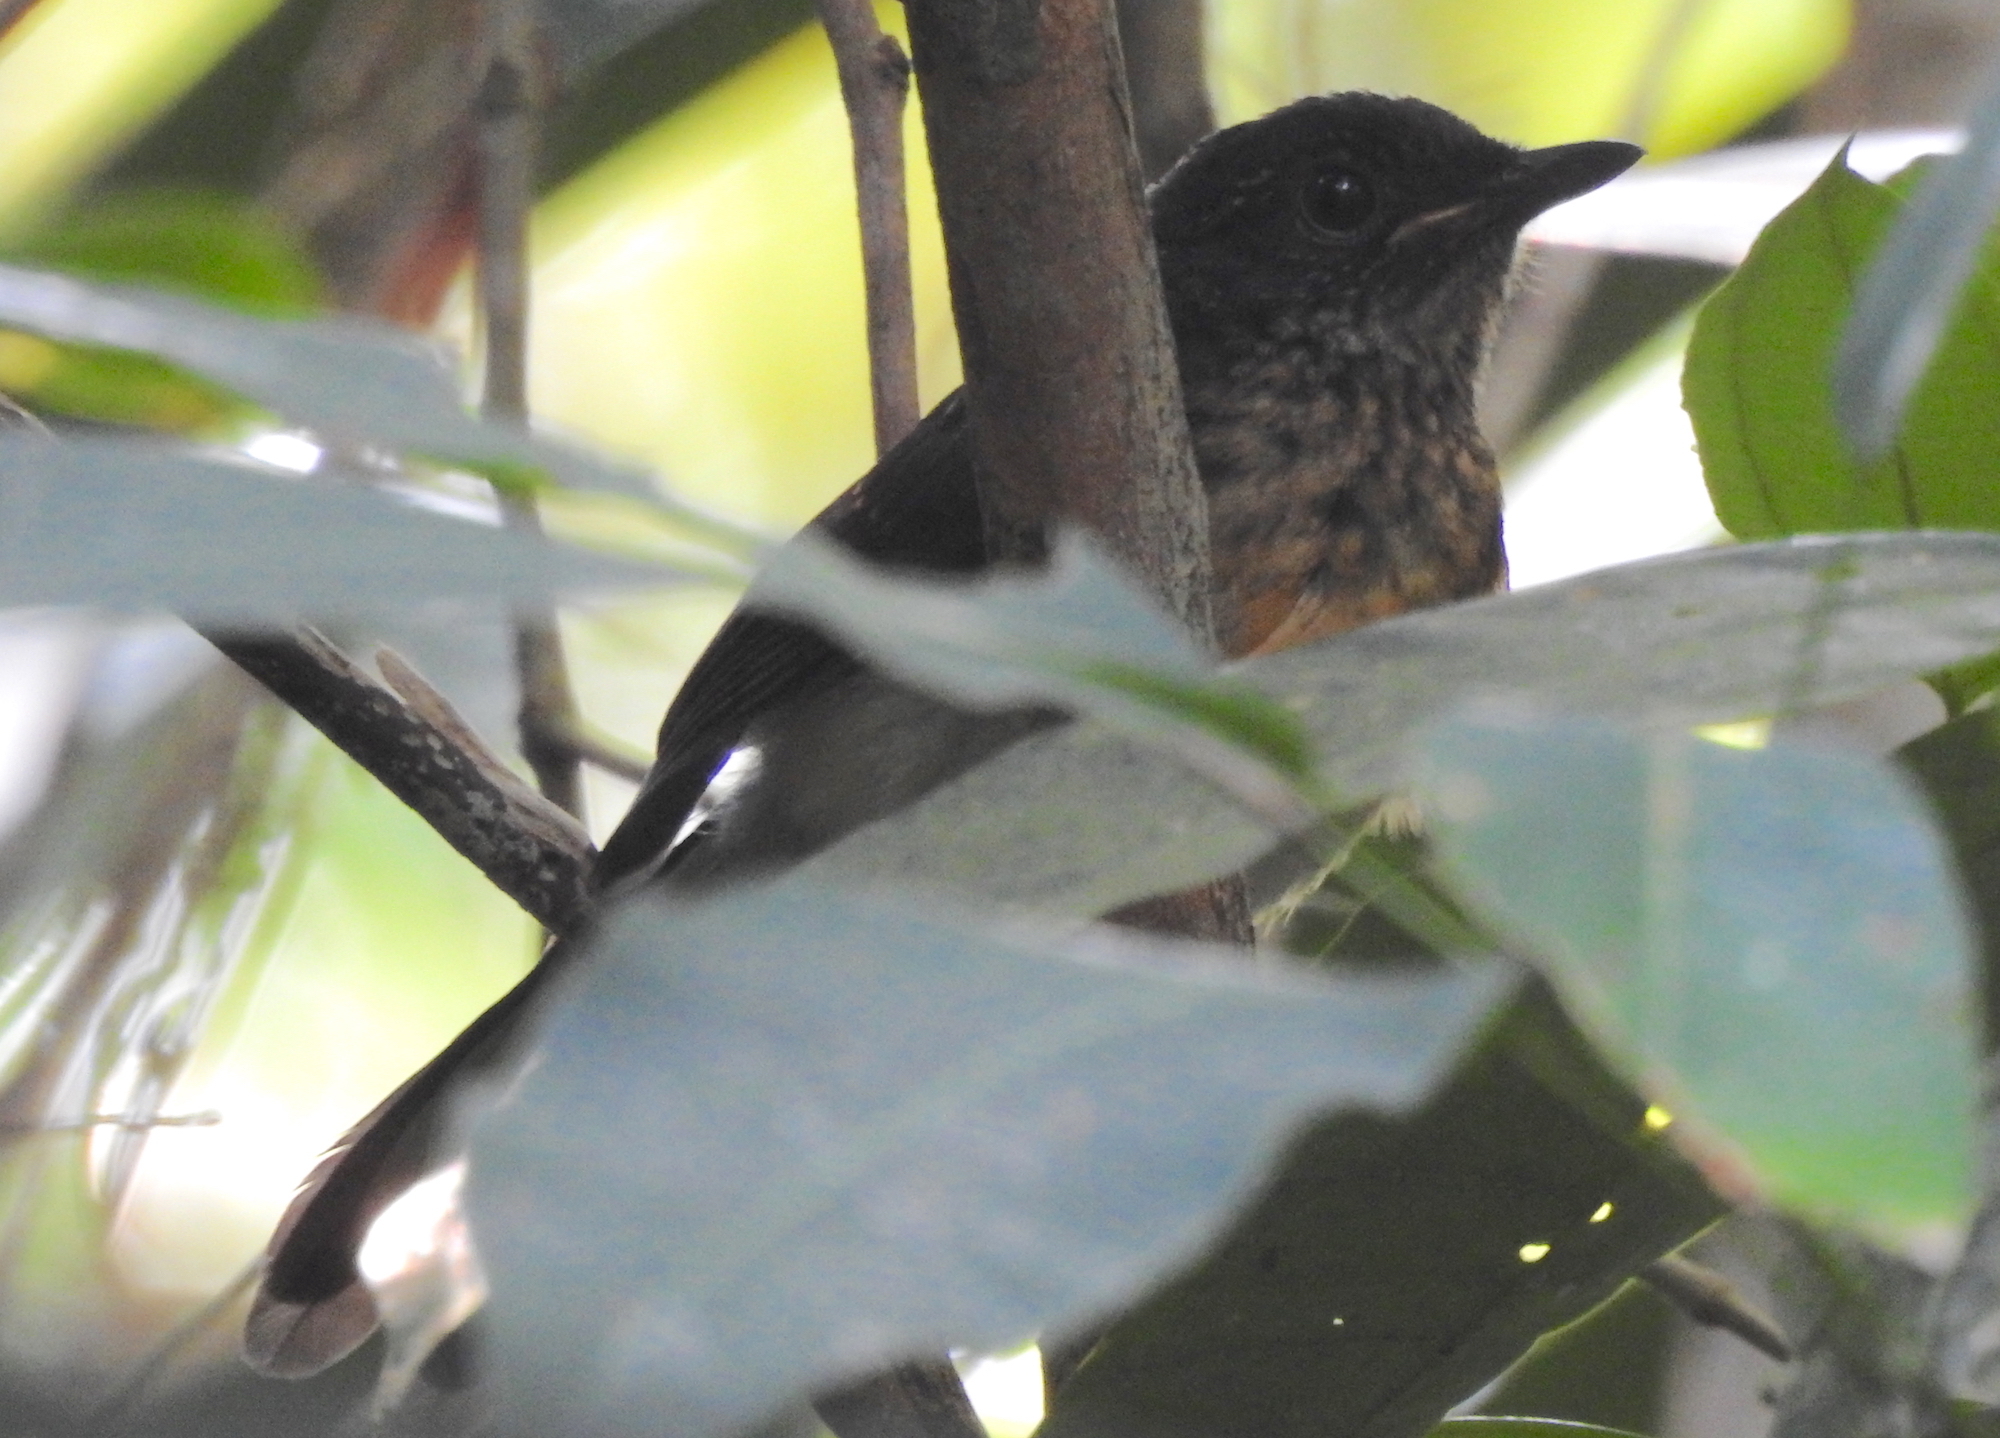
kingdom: Animalia
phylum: Chordata
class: Aves
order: Passeriformes
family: Muscicapidae
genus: Copsychus
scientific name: Copsychus saularis
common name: Oriental magpie-robin
